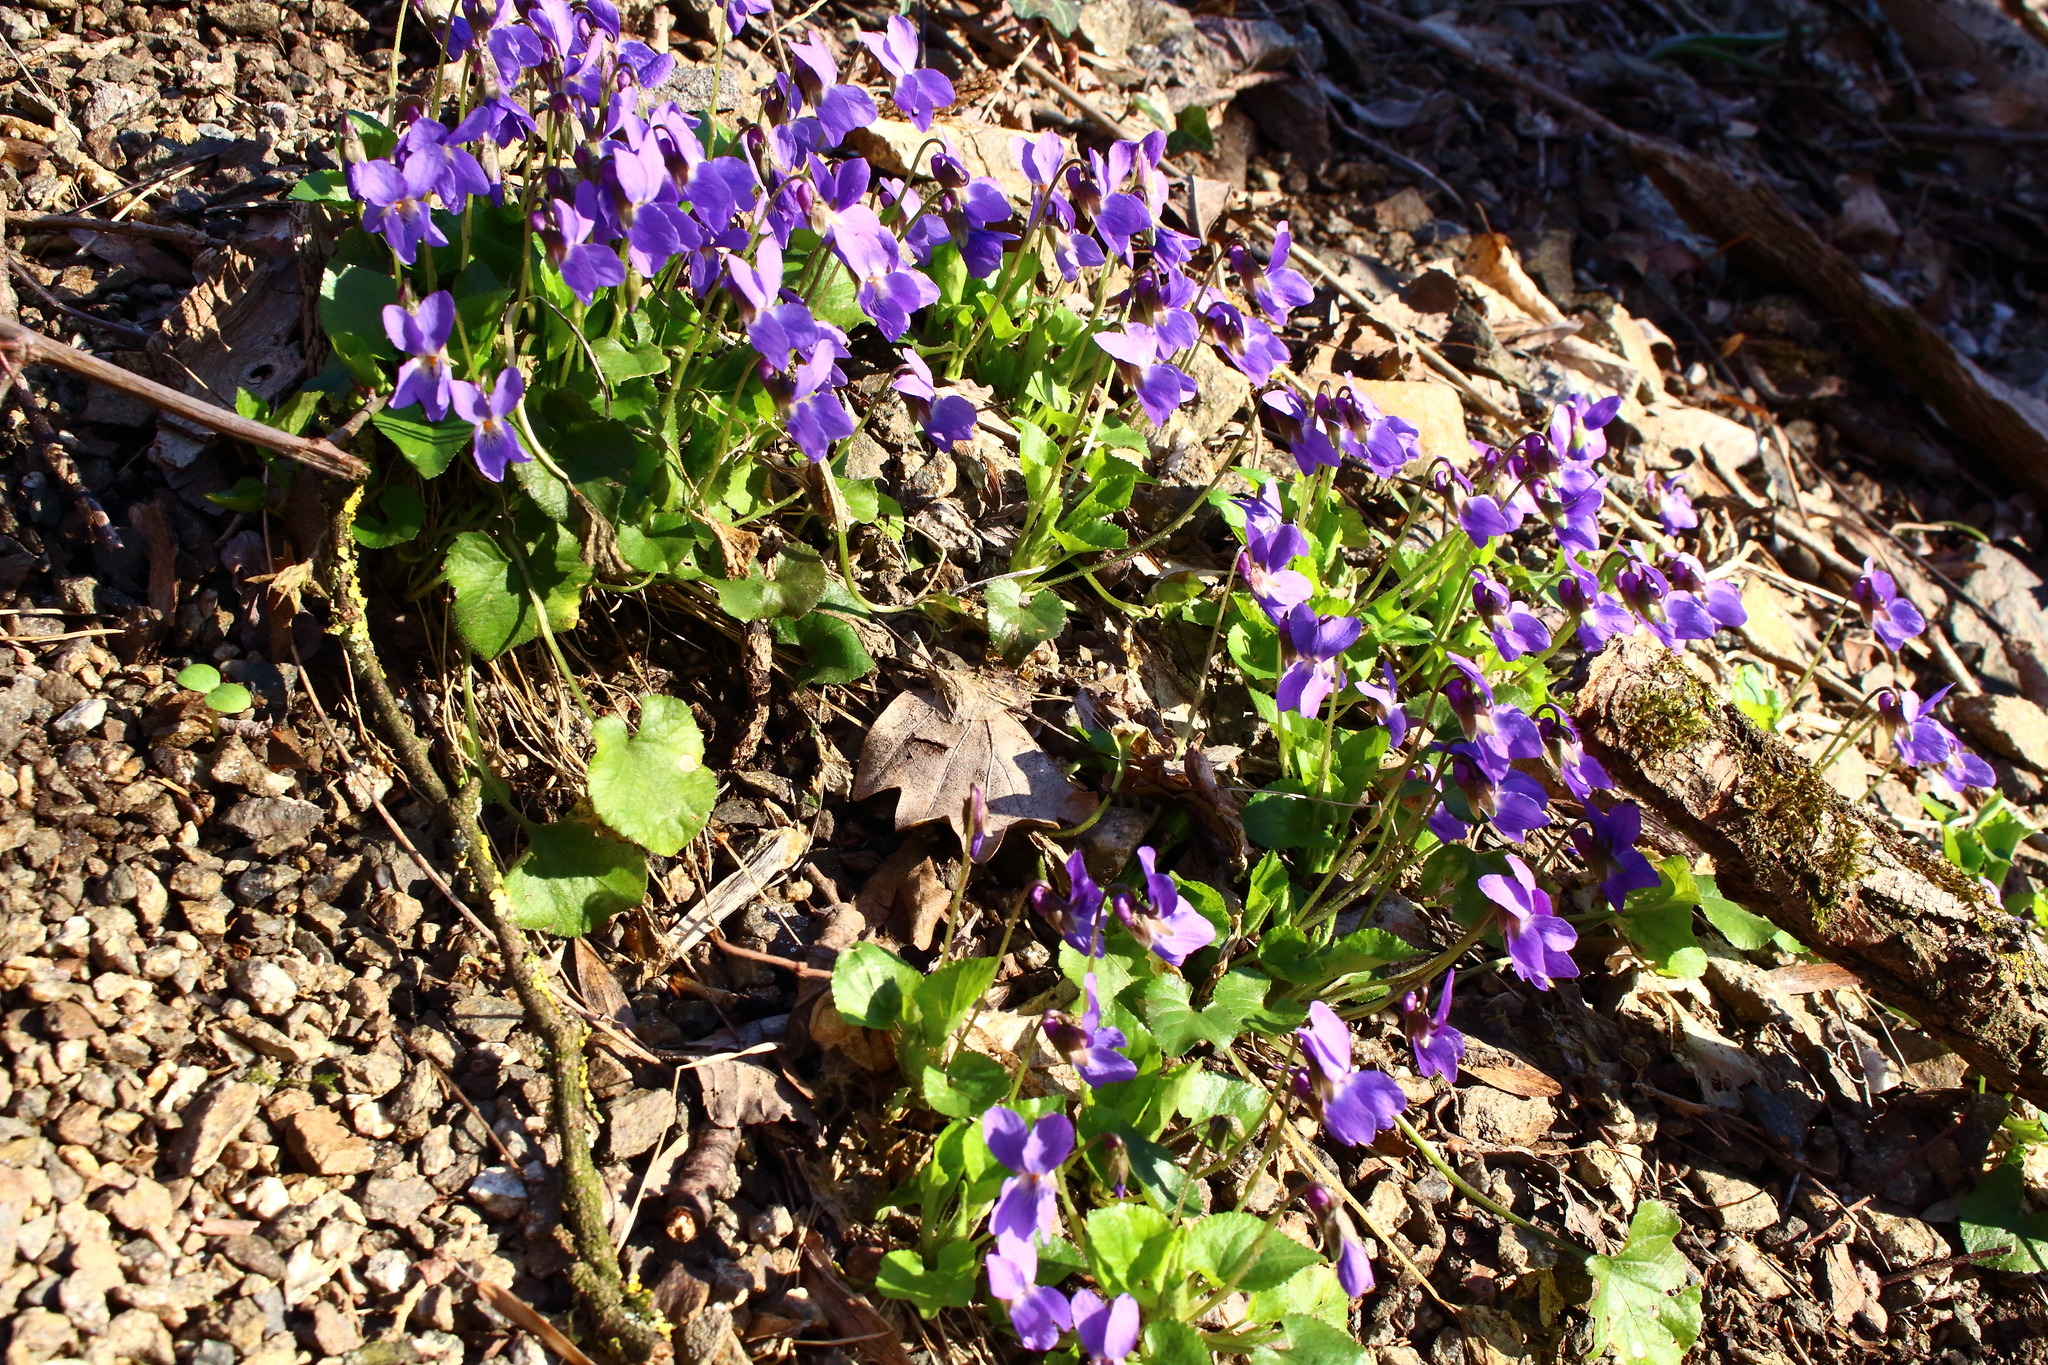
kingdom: Plantae
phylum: Tracheophyta
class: Magnoliopsida
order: Malpighiales
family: Violaceae
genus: Viola
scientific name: Viola odorata
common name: Sweet violet
